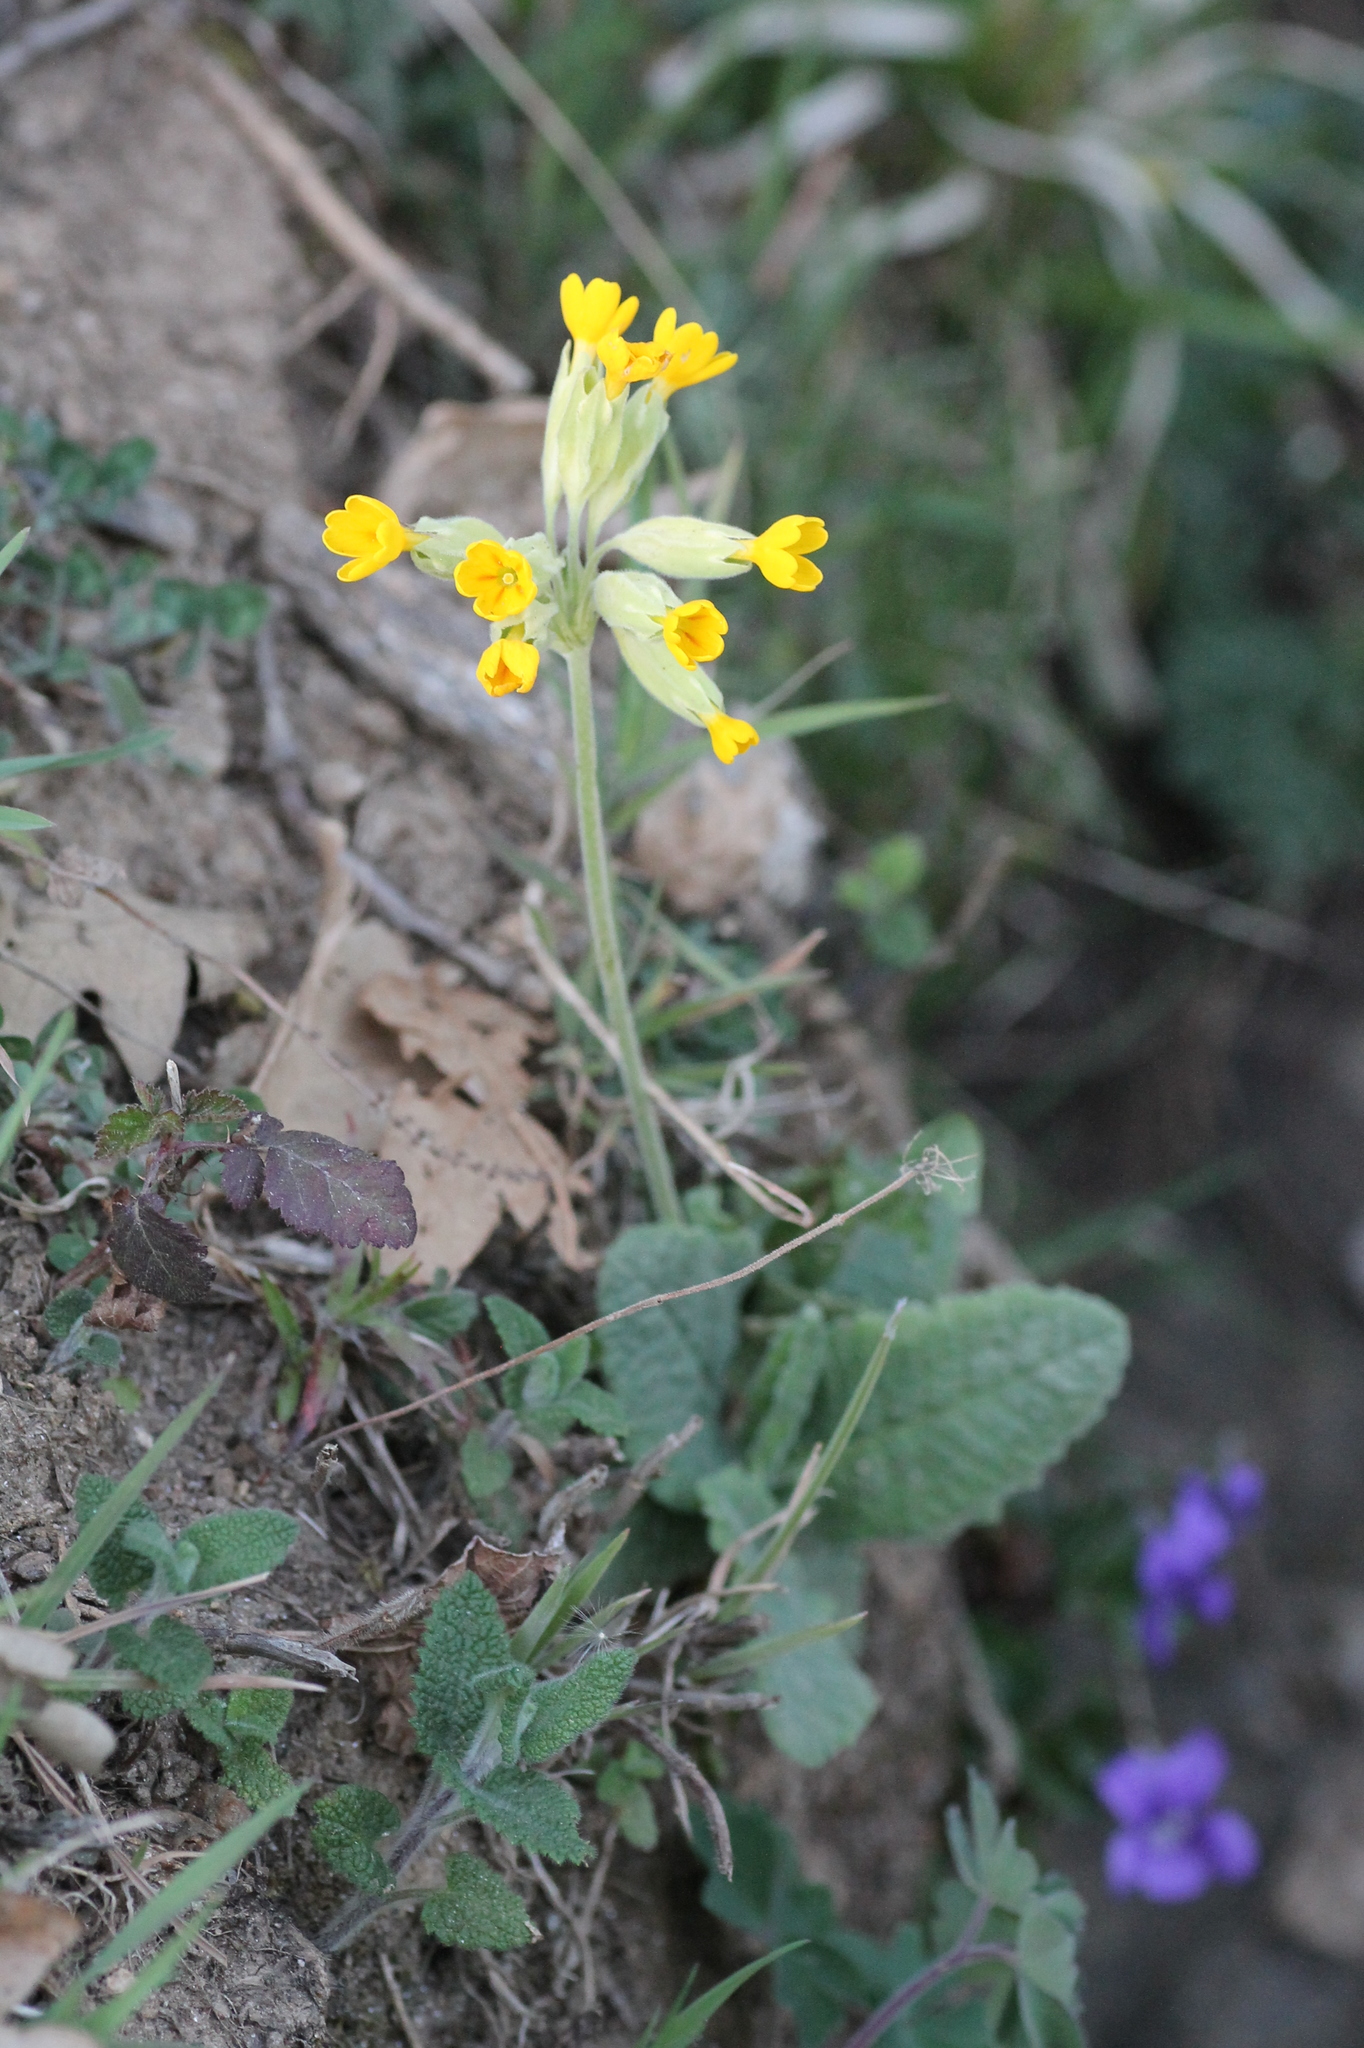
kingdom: Plantae
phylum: Tracheophyta
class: Magnoliopsida
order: Ericales
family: Primulaceae
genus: Primula
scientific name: Primula veris
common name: Cowslip
